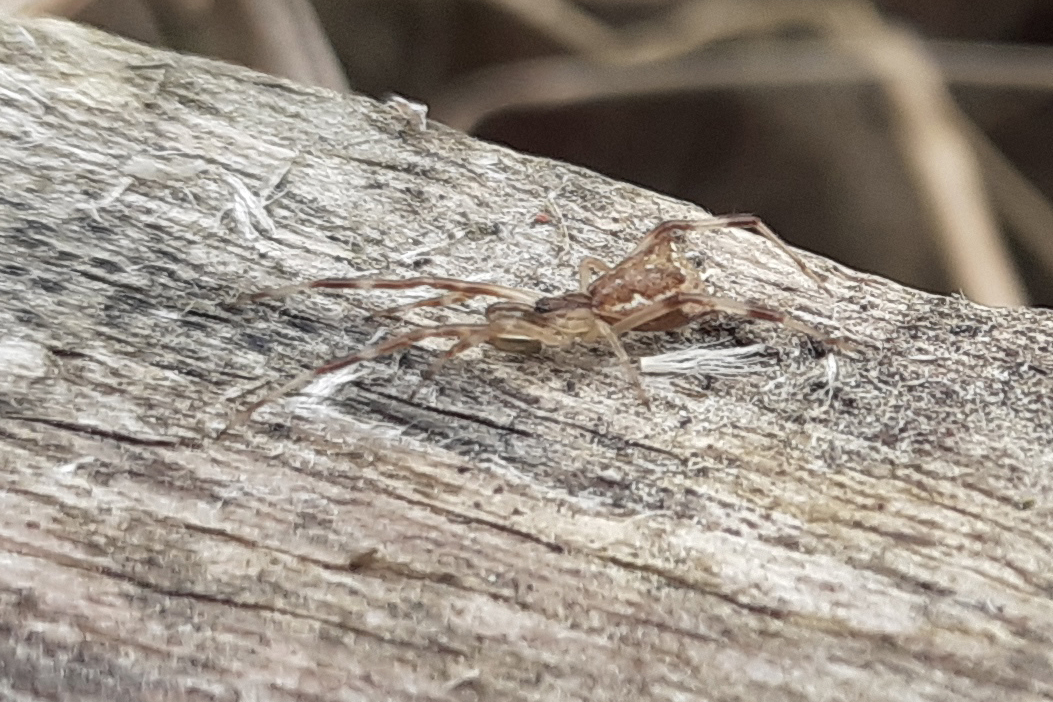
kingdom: Animalia
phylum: Arthropoda
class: Arachnida
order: Araneae
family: Theridiidae
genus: Episinus
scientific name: Episinus angulatus
